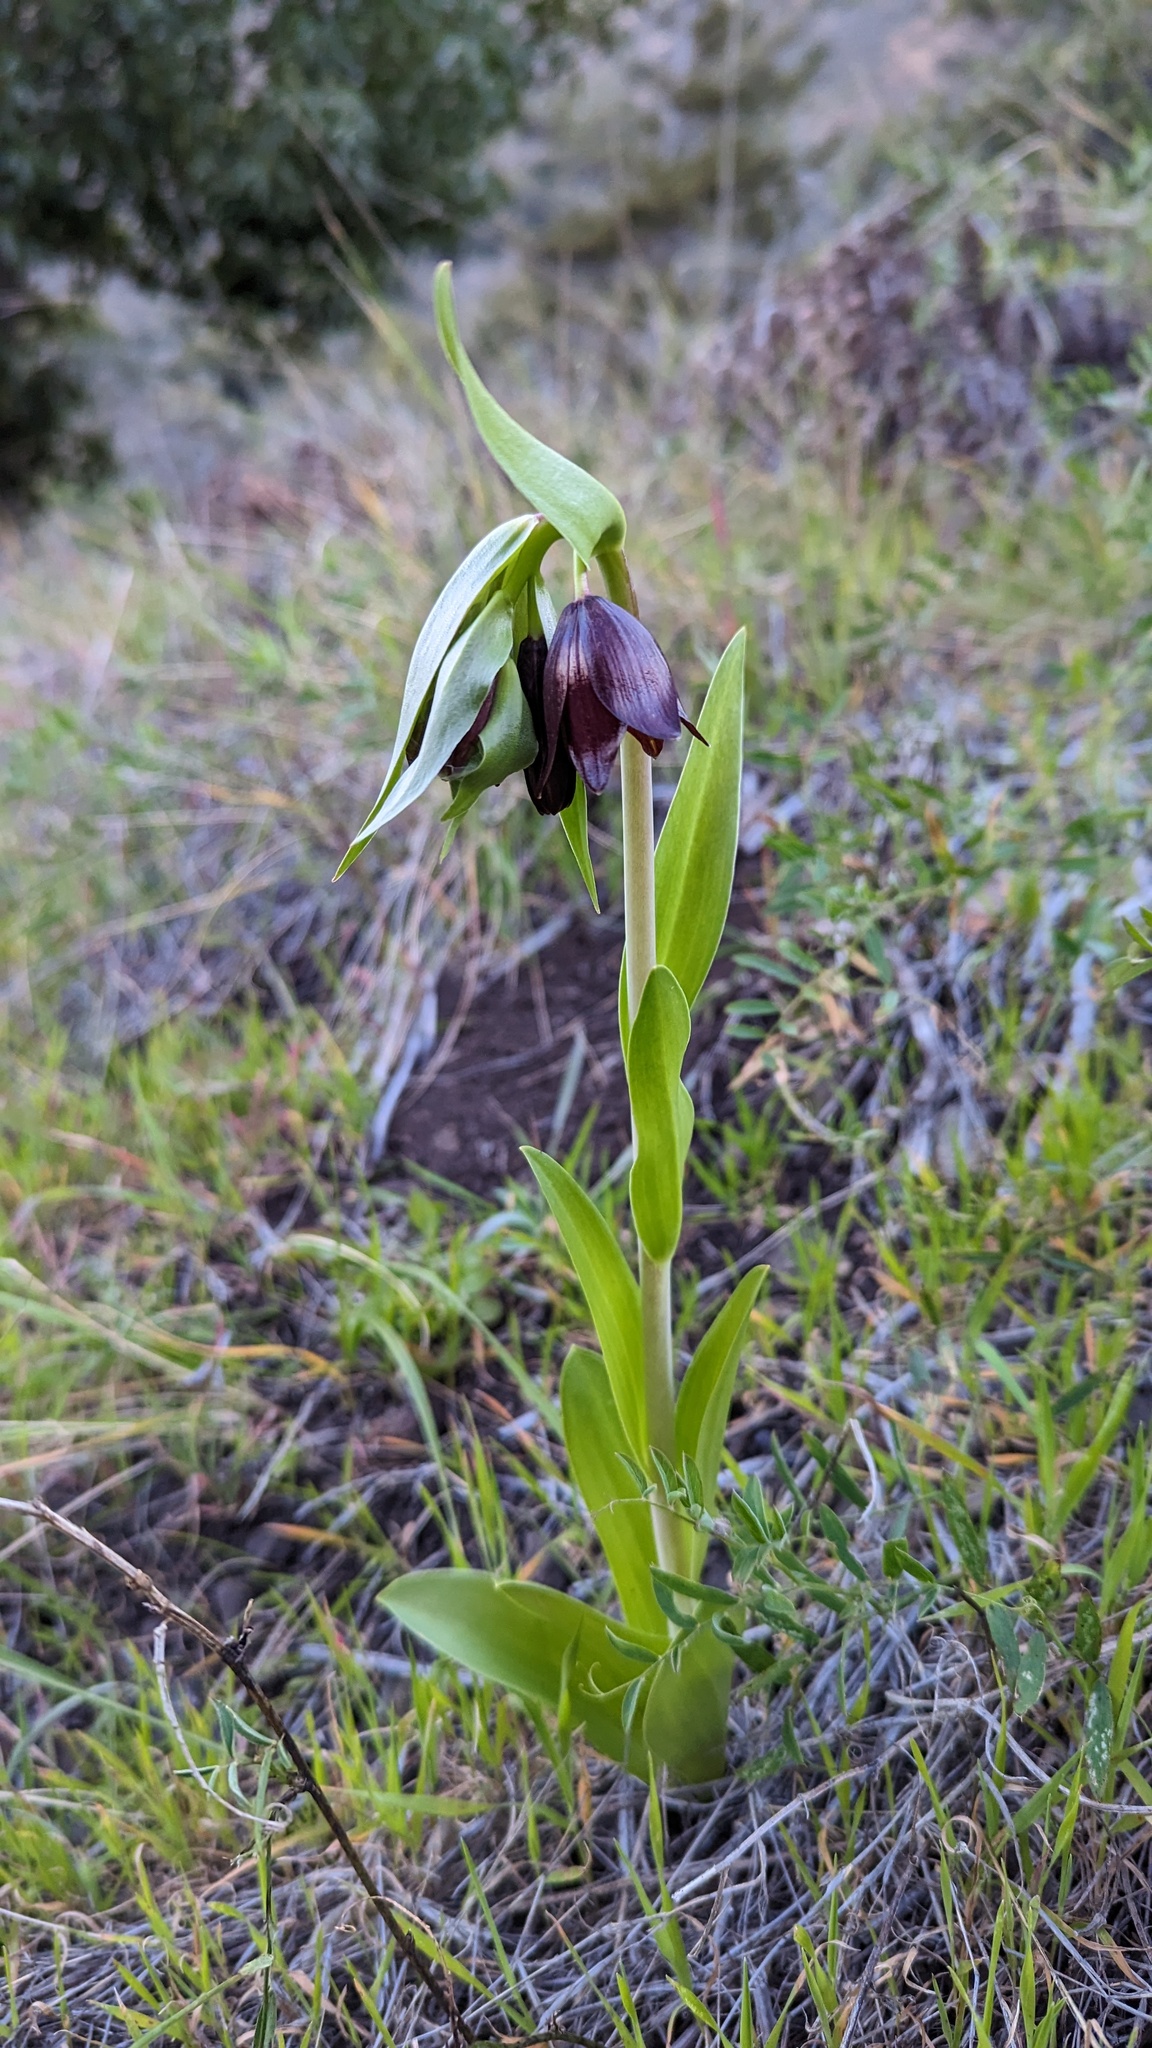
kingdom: Plantae
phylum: Tracheophyta
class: Liliopsida
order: Liliales
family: Liliaceae
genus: Fritillaria
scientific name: Fritillaria biflora
